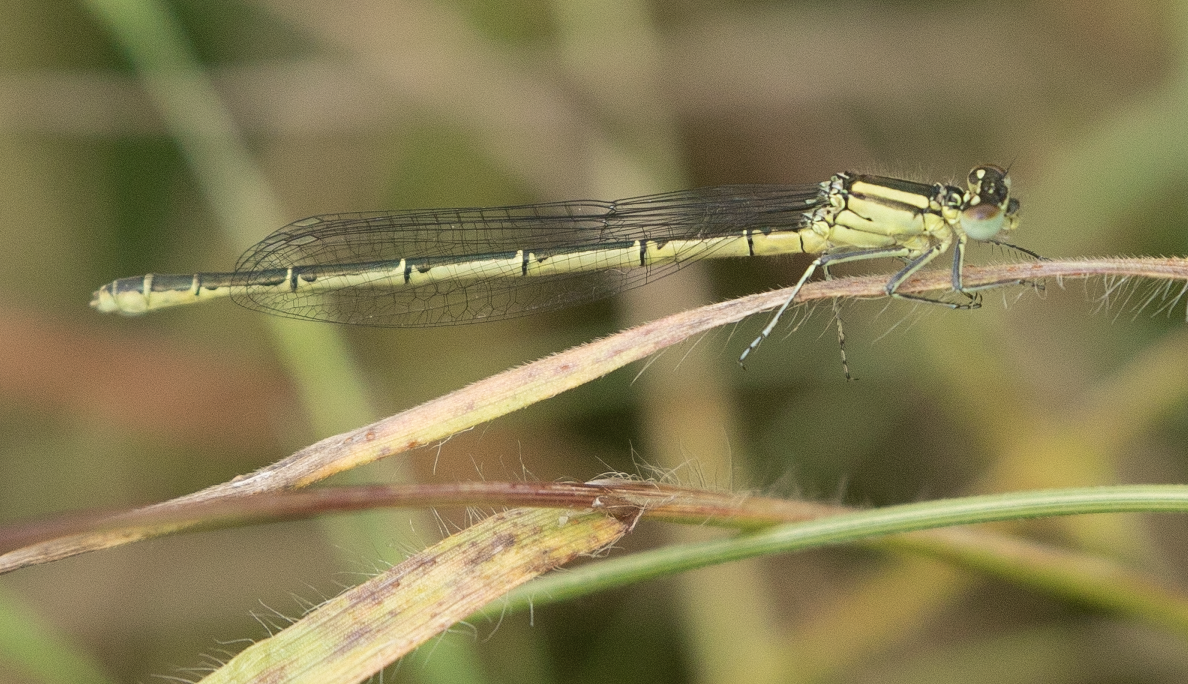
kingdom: Animalia
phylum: Arthropoda
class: Insecta
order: Odonata
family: Coenagrionidae
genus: Erythromma
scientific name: Erythromma lindenii
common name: Blue-eye
